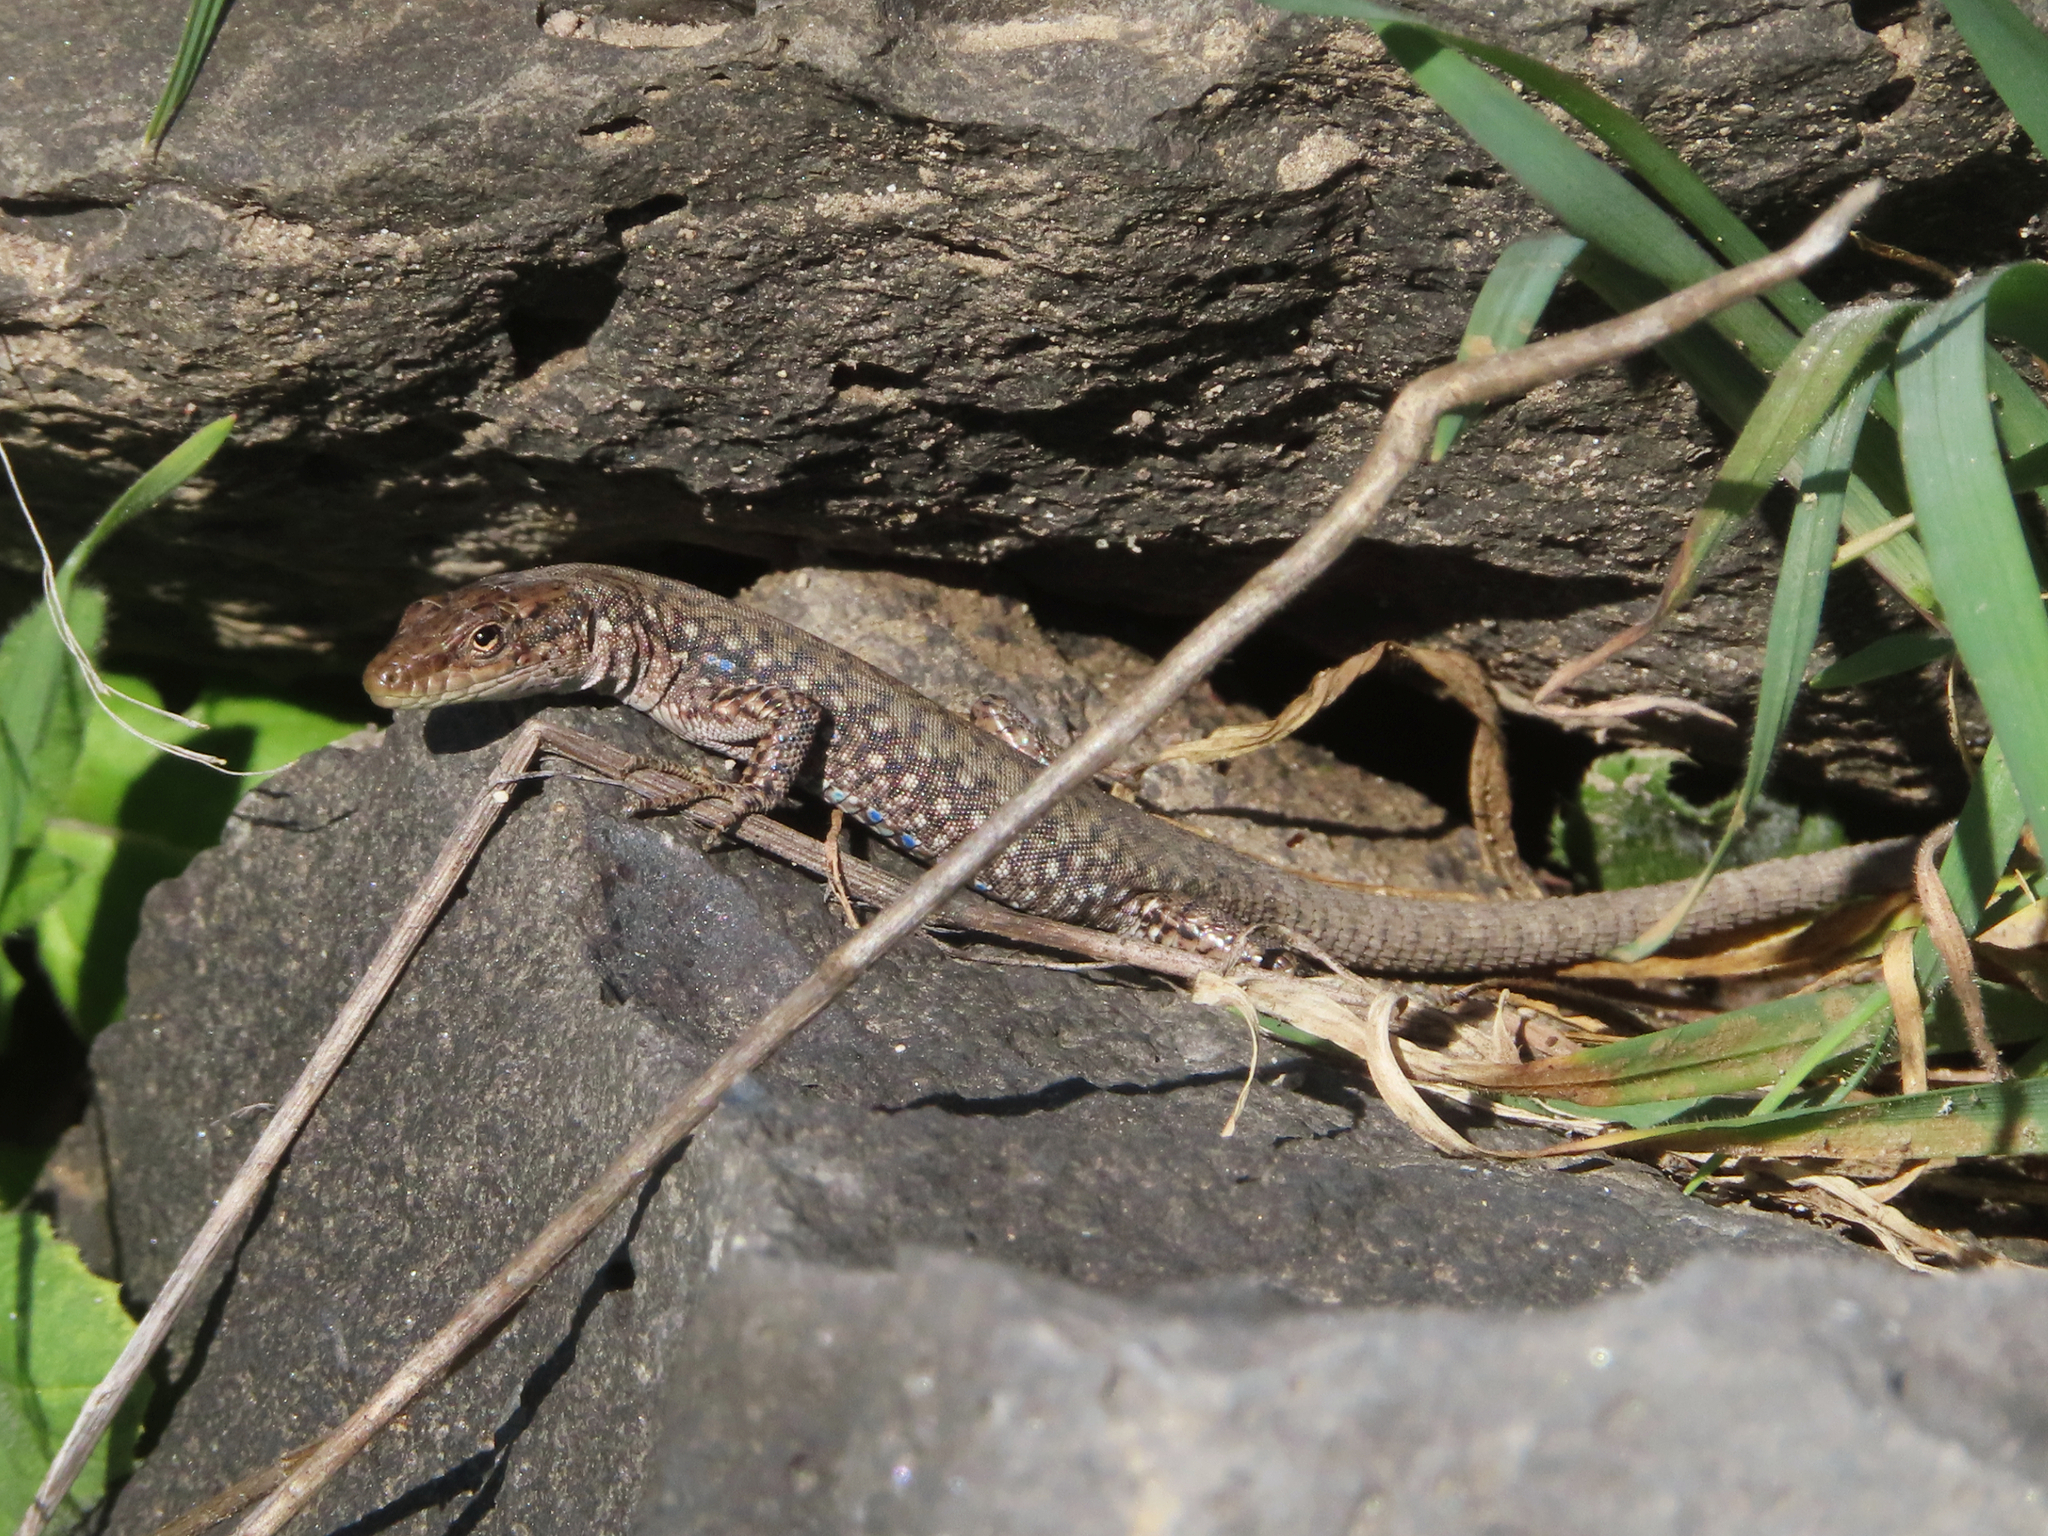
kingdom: Animalia
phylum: Chordata
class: Squamata
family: Lacertidae
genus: Darevskia
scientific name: Darevskia
